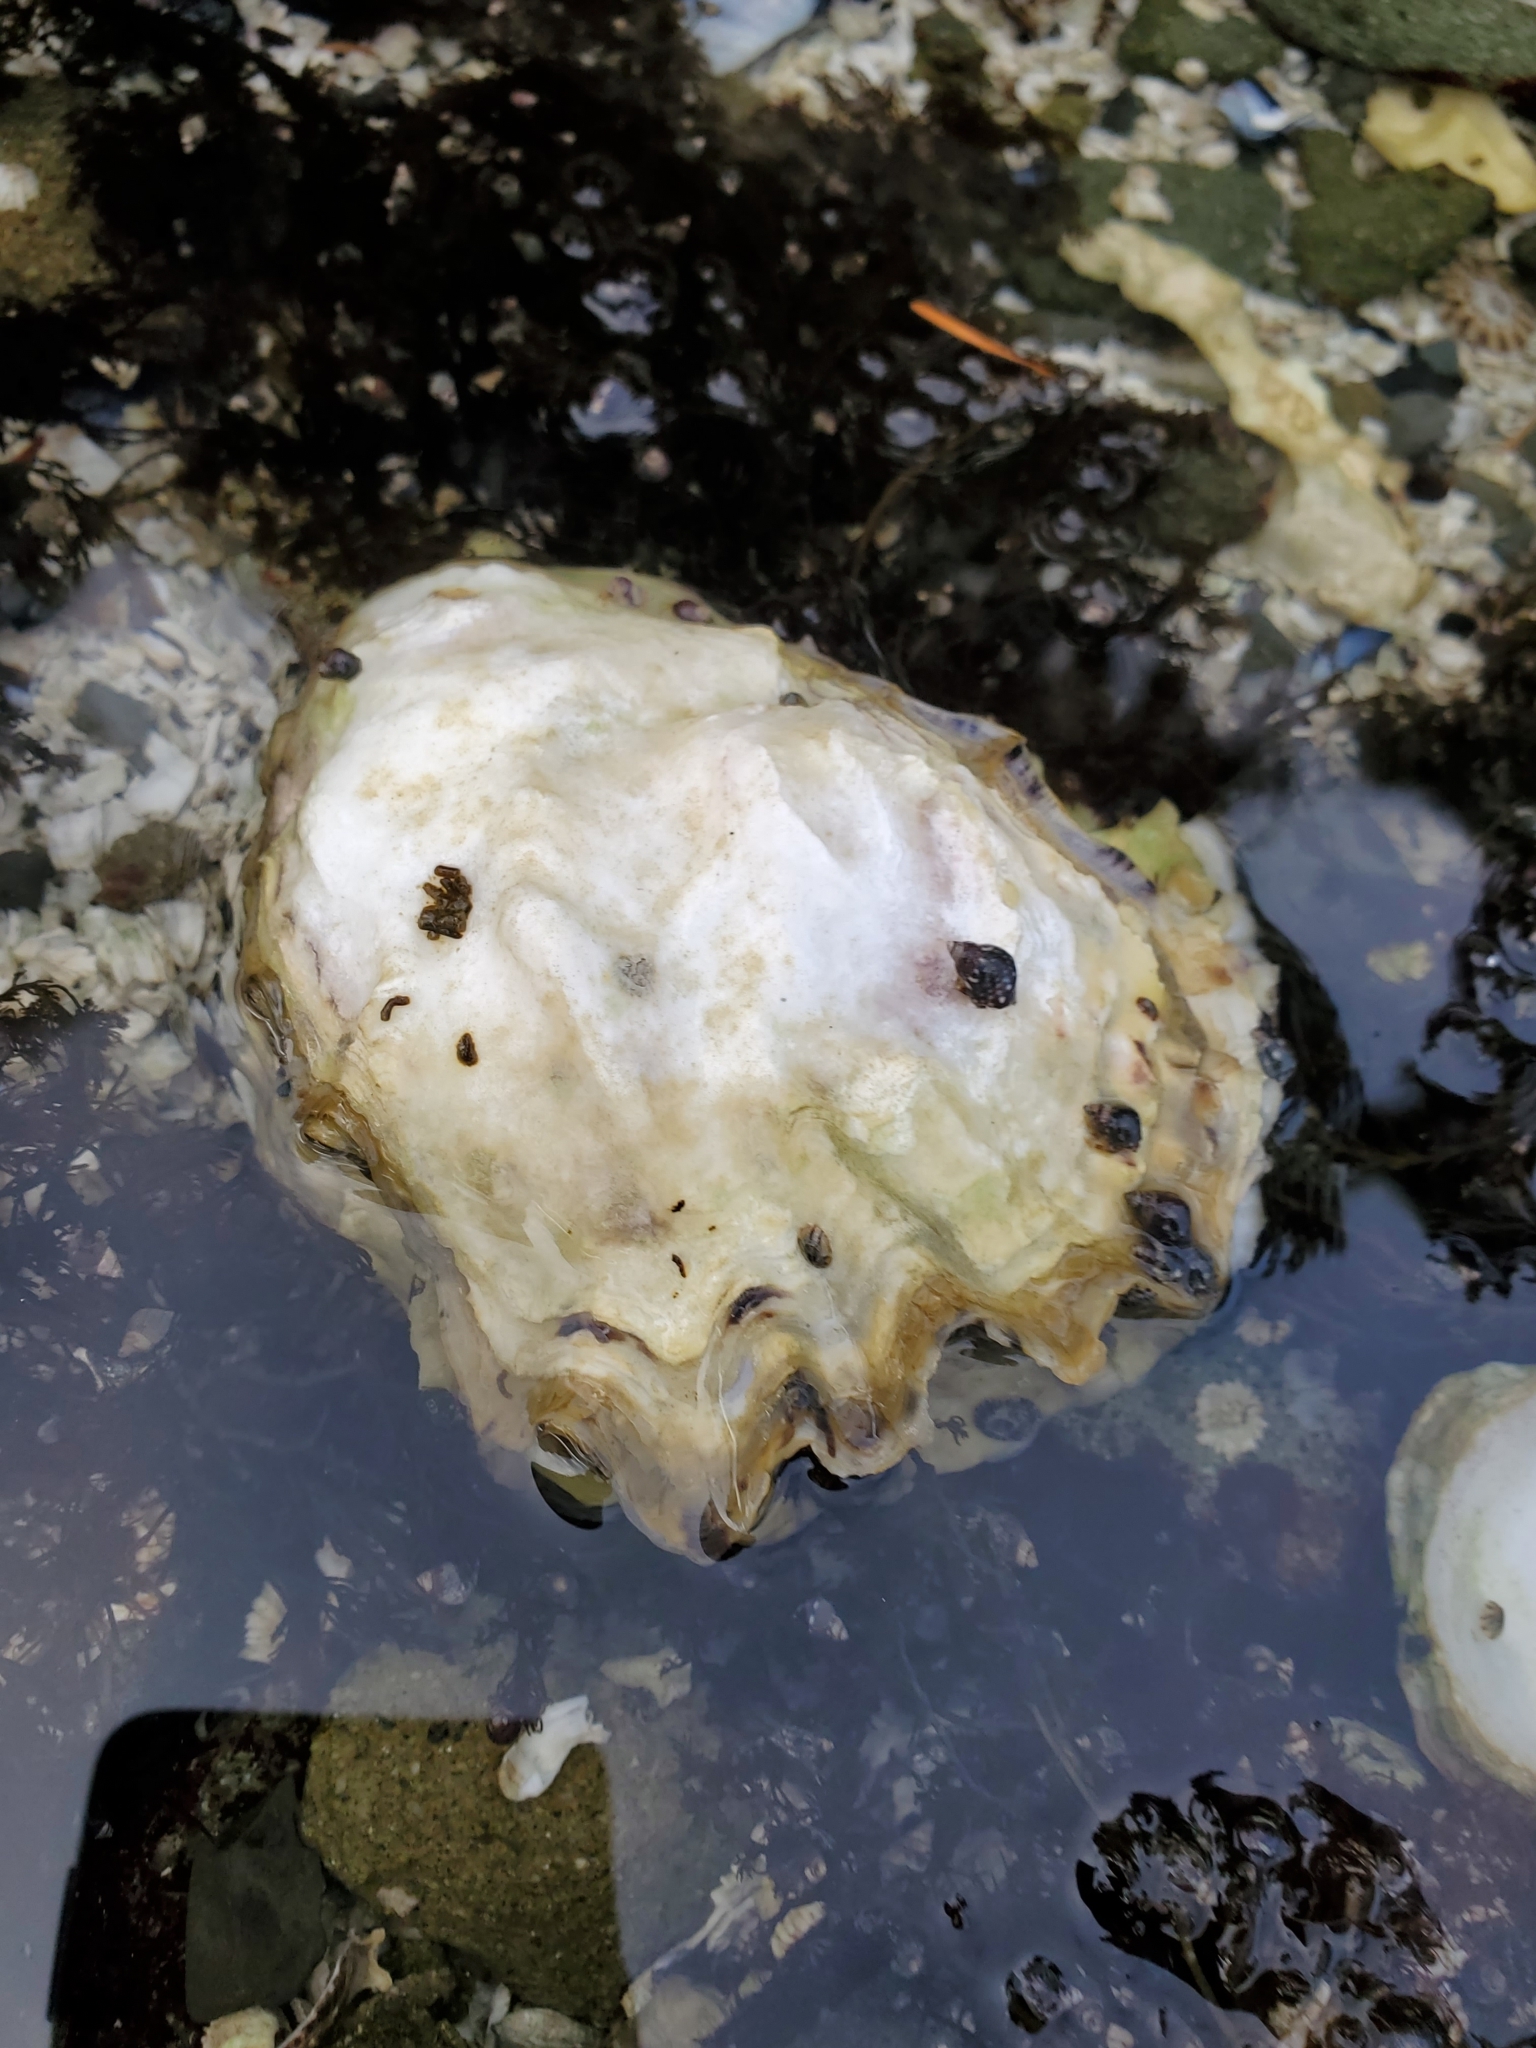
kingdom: Animalia
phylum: Mollusca
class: Bivalvia
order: Ostreida
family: Ostreidae
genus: Magallana
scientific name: Magallana gigas
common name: Pacific oyster
